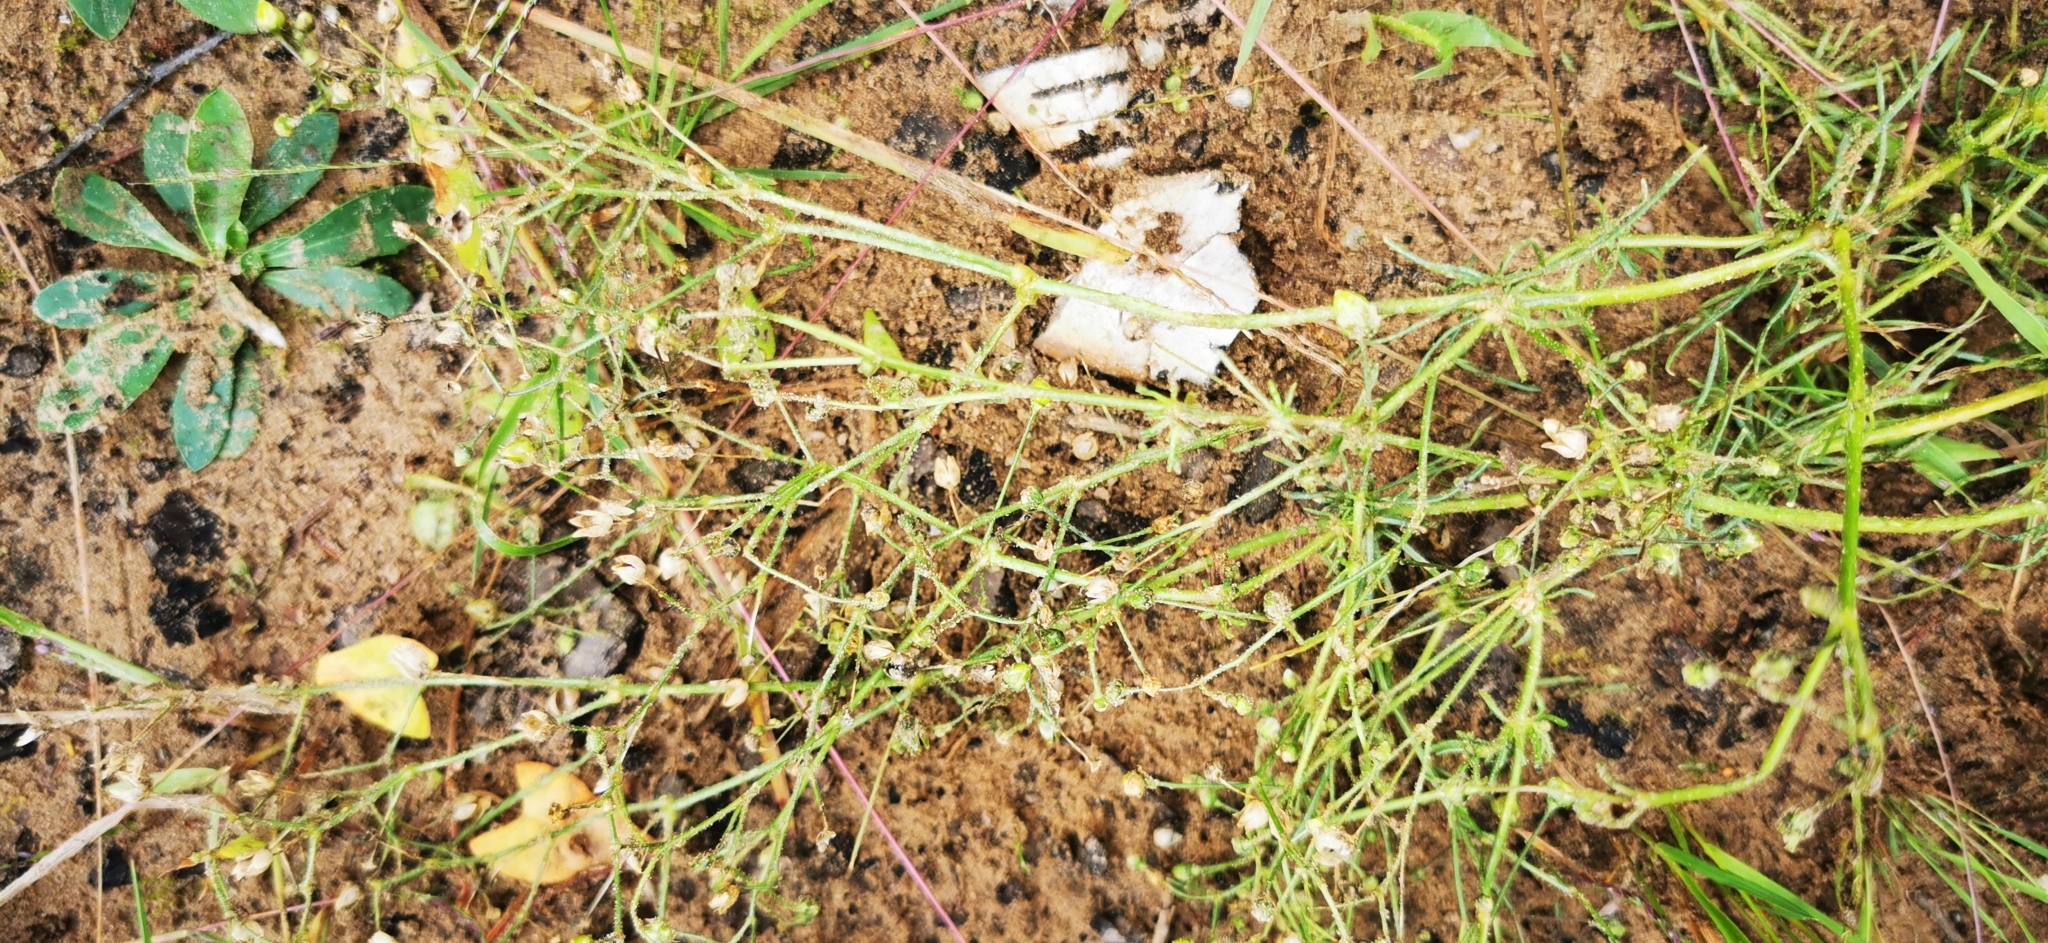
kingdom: Plantae
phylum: Tracheophyta
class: Magnoliopsida
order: Caryophyllales
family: Caryophyllaceae
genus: Spergula
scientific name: Spergula arvensis
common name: Corn spurrey
